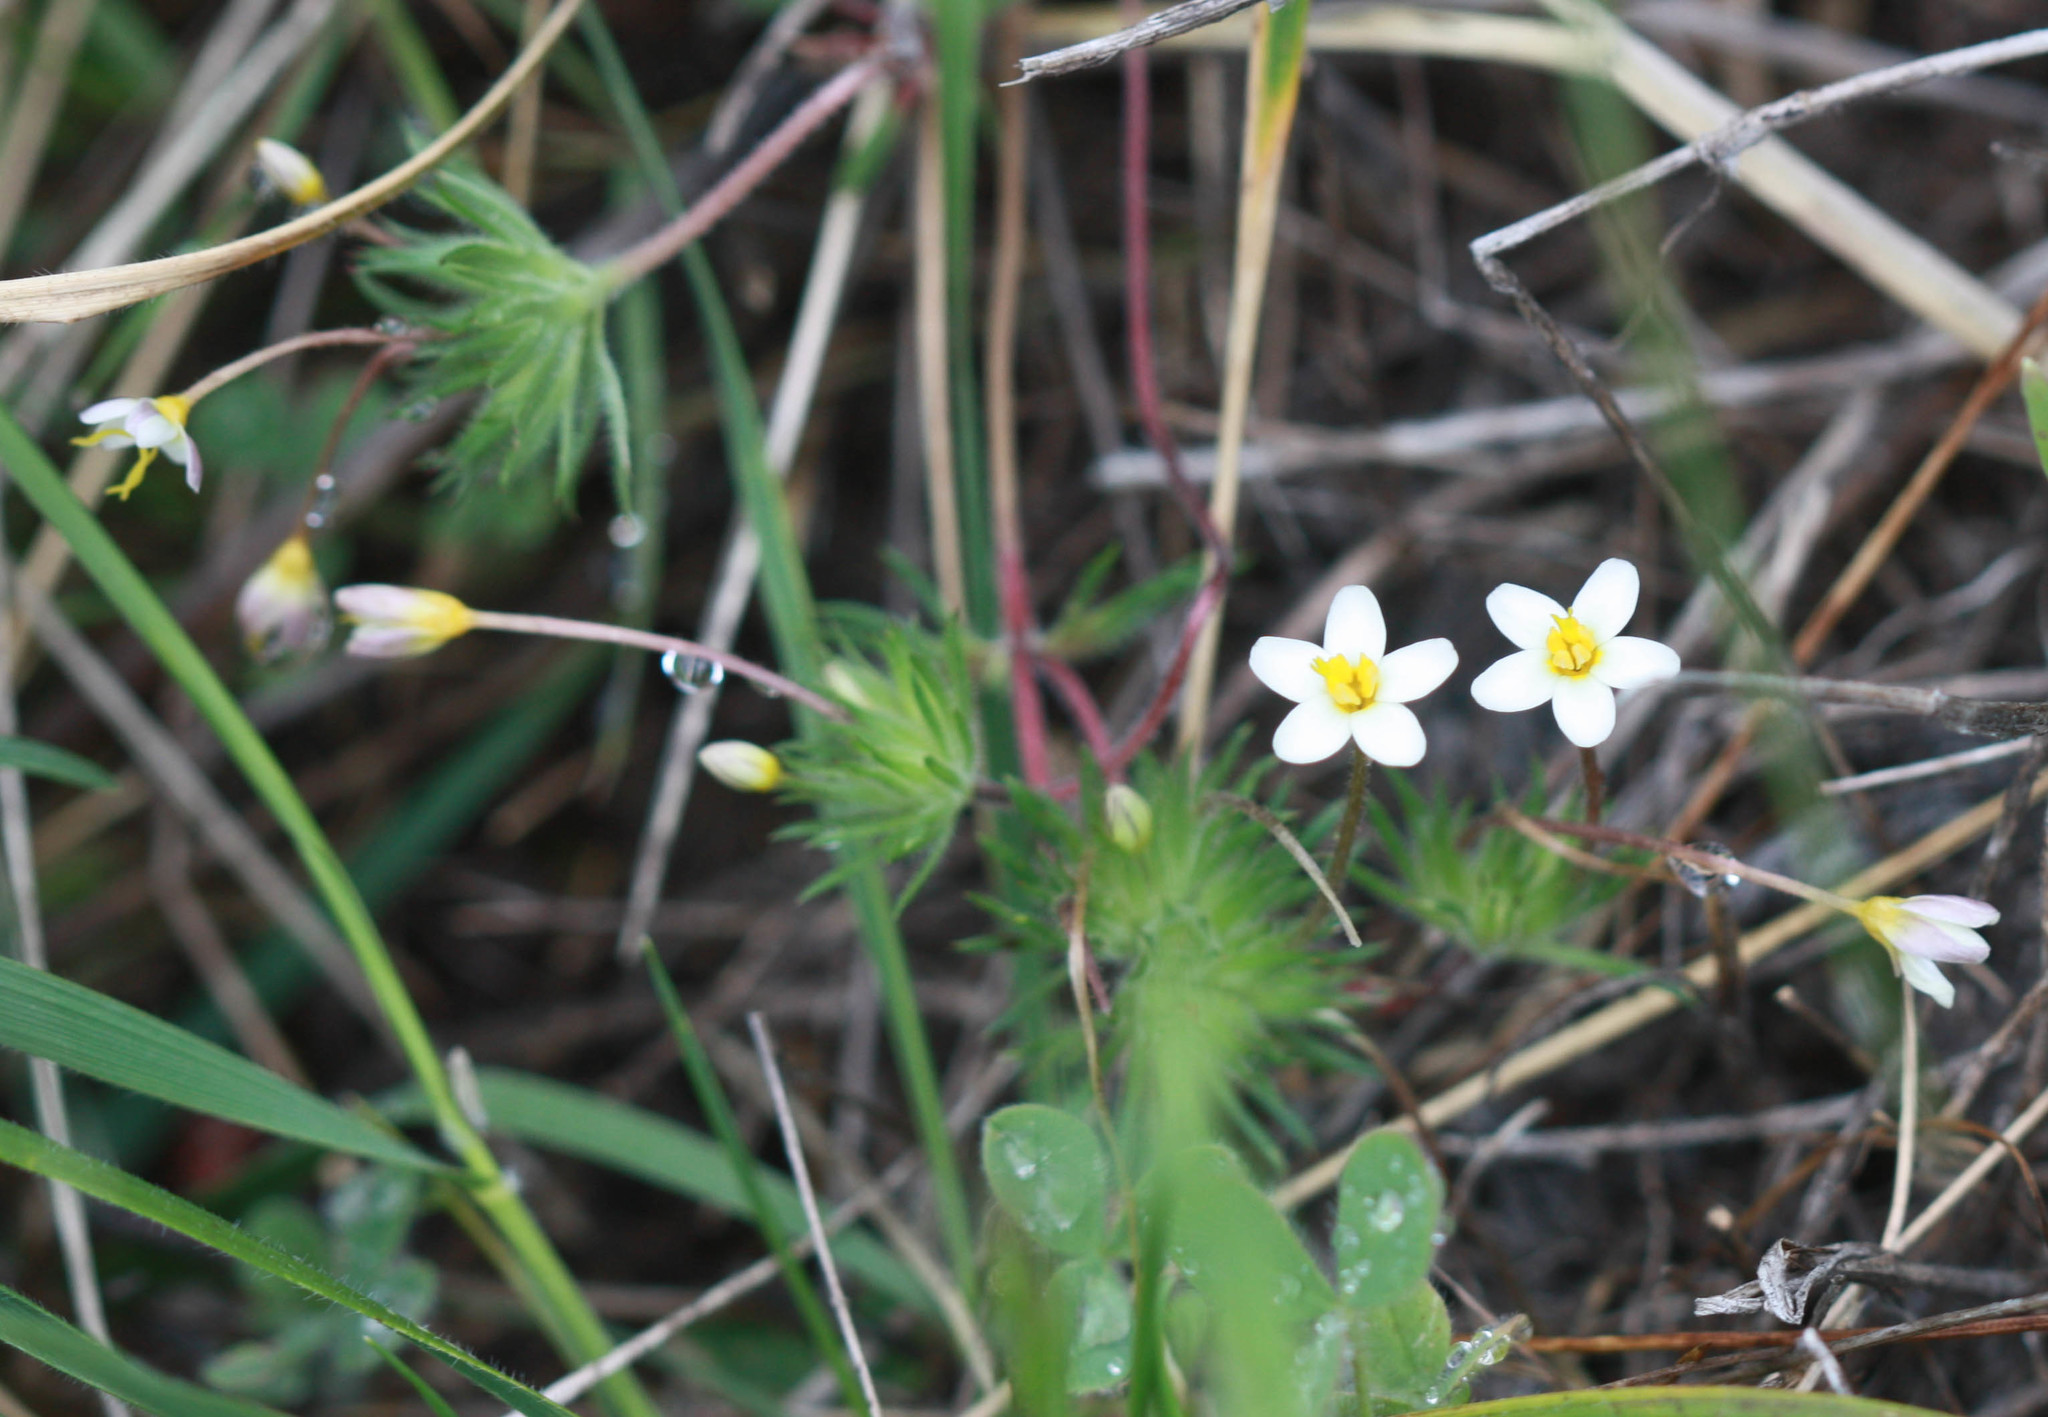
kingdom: Plantae
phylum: Tracheophyta
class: Magnoliopsida
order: Ericales
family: Polemoniaceae
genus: Leptosiphon
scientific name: Leptosiphon parviflorus
